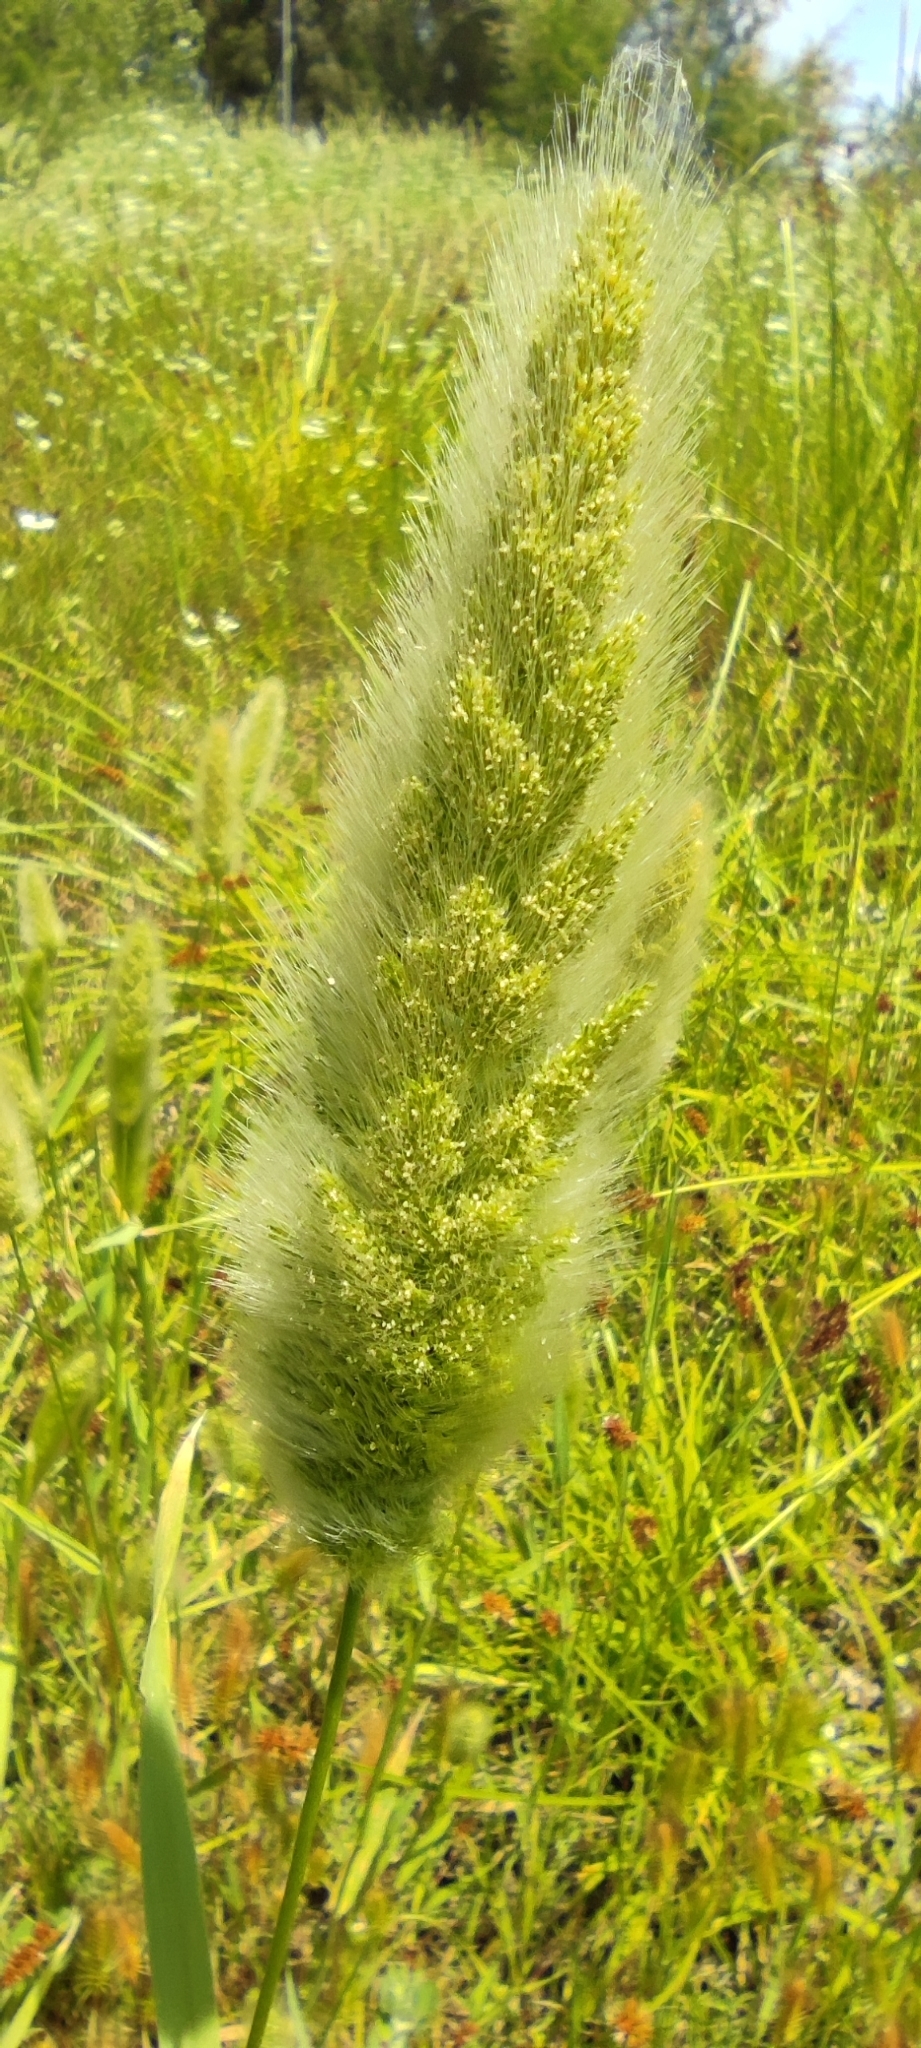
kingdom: Plantae
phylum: Tracheophyta
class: Liliopsida
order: Poales
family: Poaceae
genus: Polypogon
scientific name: Polypogon monspeliensis
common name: Annual rabbitsfoot grass
